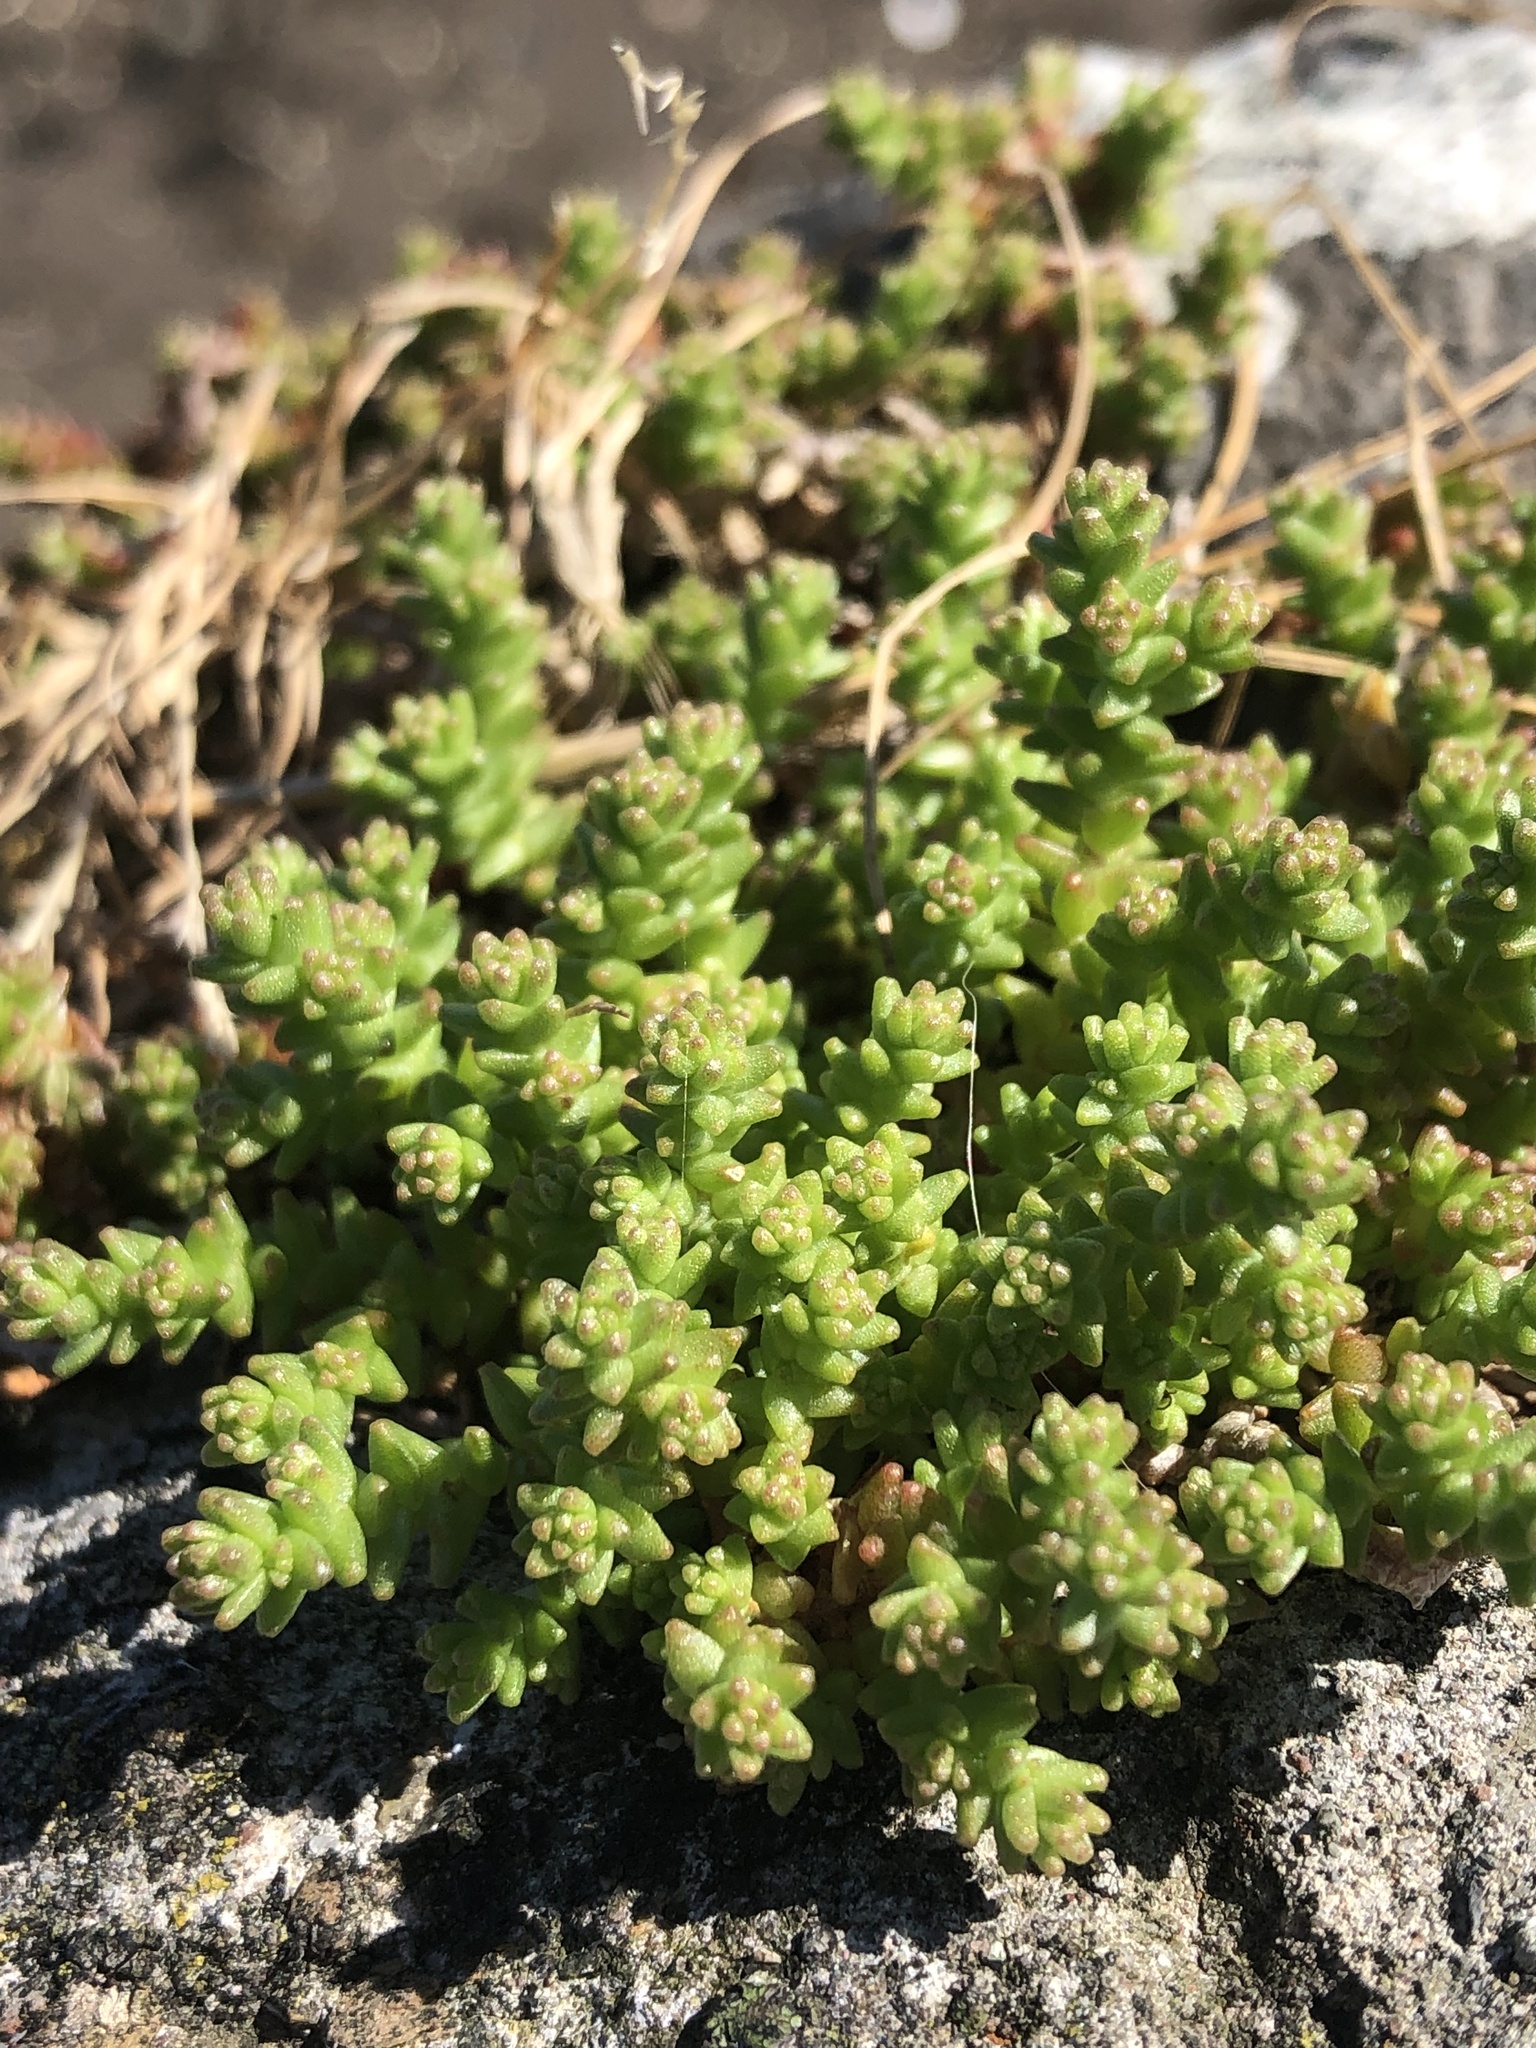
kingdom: Plantae
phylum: Tracheophyta
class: Magnoliopsida
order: Saxifragales
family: Crassulaceae
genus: Sedum
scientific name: Sedum anglicum
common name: English stonecrop
